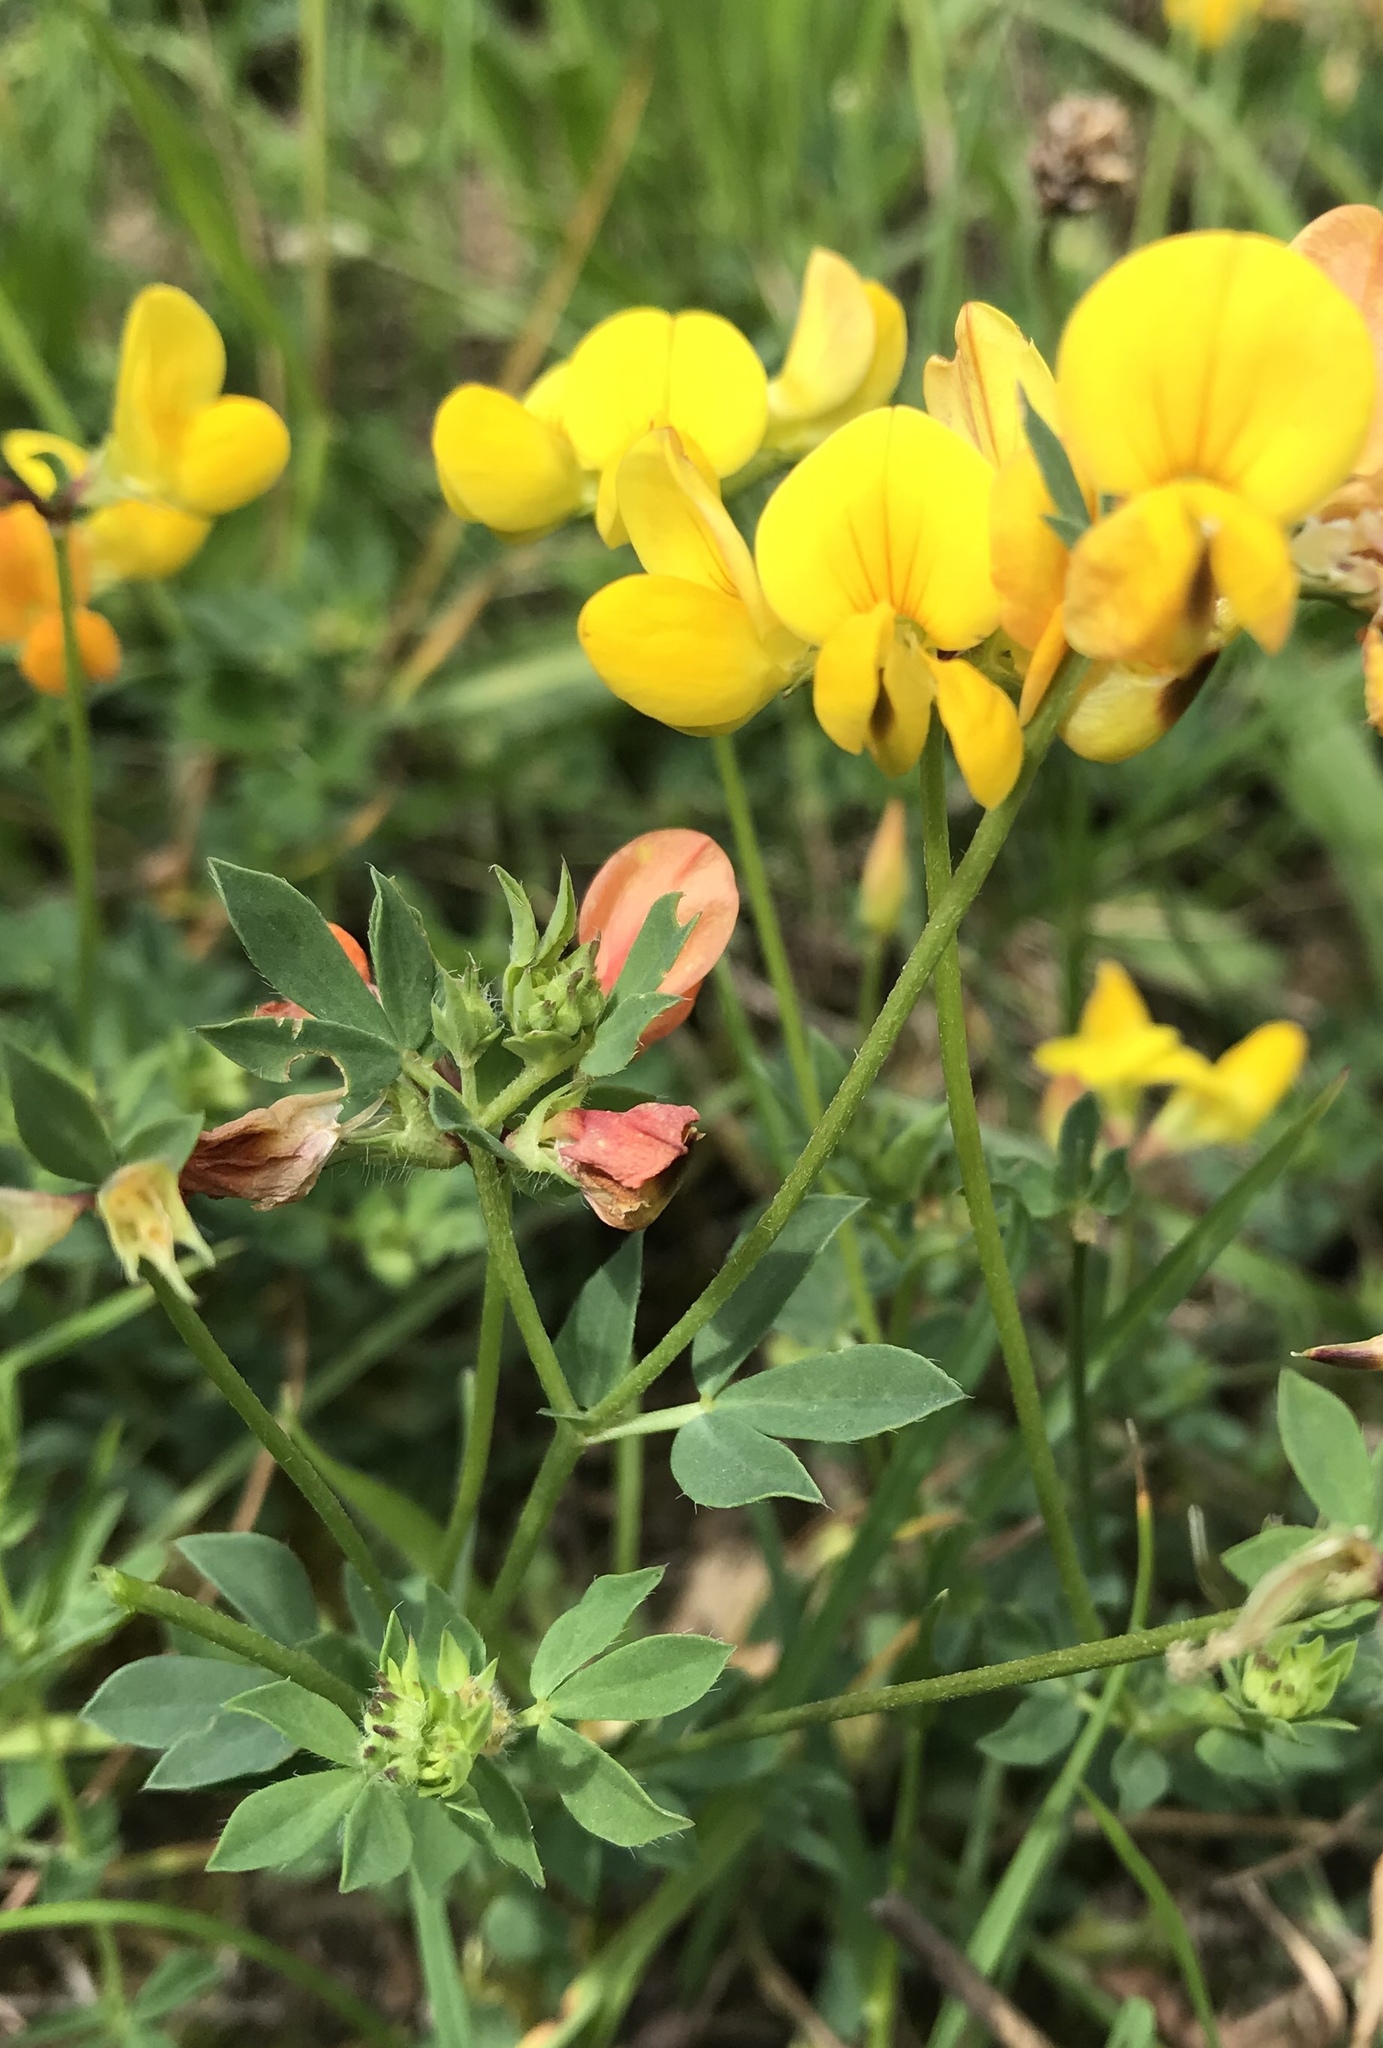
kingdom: Plantae
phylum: Tracheophyta
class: Magnoliopsida
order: Fabales
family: Fabaceae
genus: Lotus
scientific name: Lotus corniculatus
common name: Common bird's-foot-trefoil
